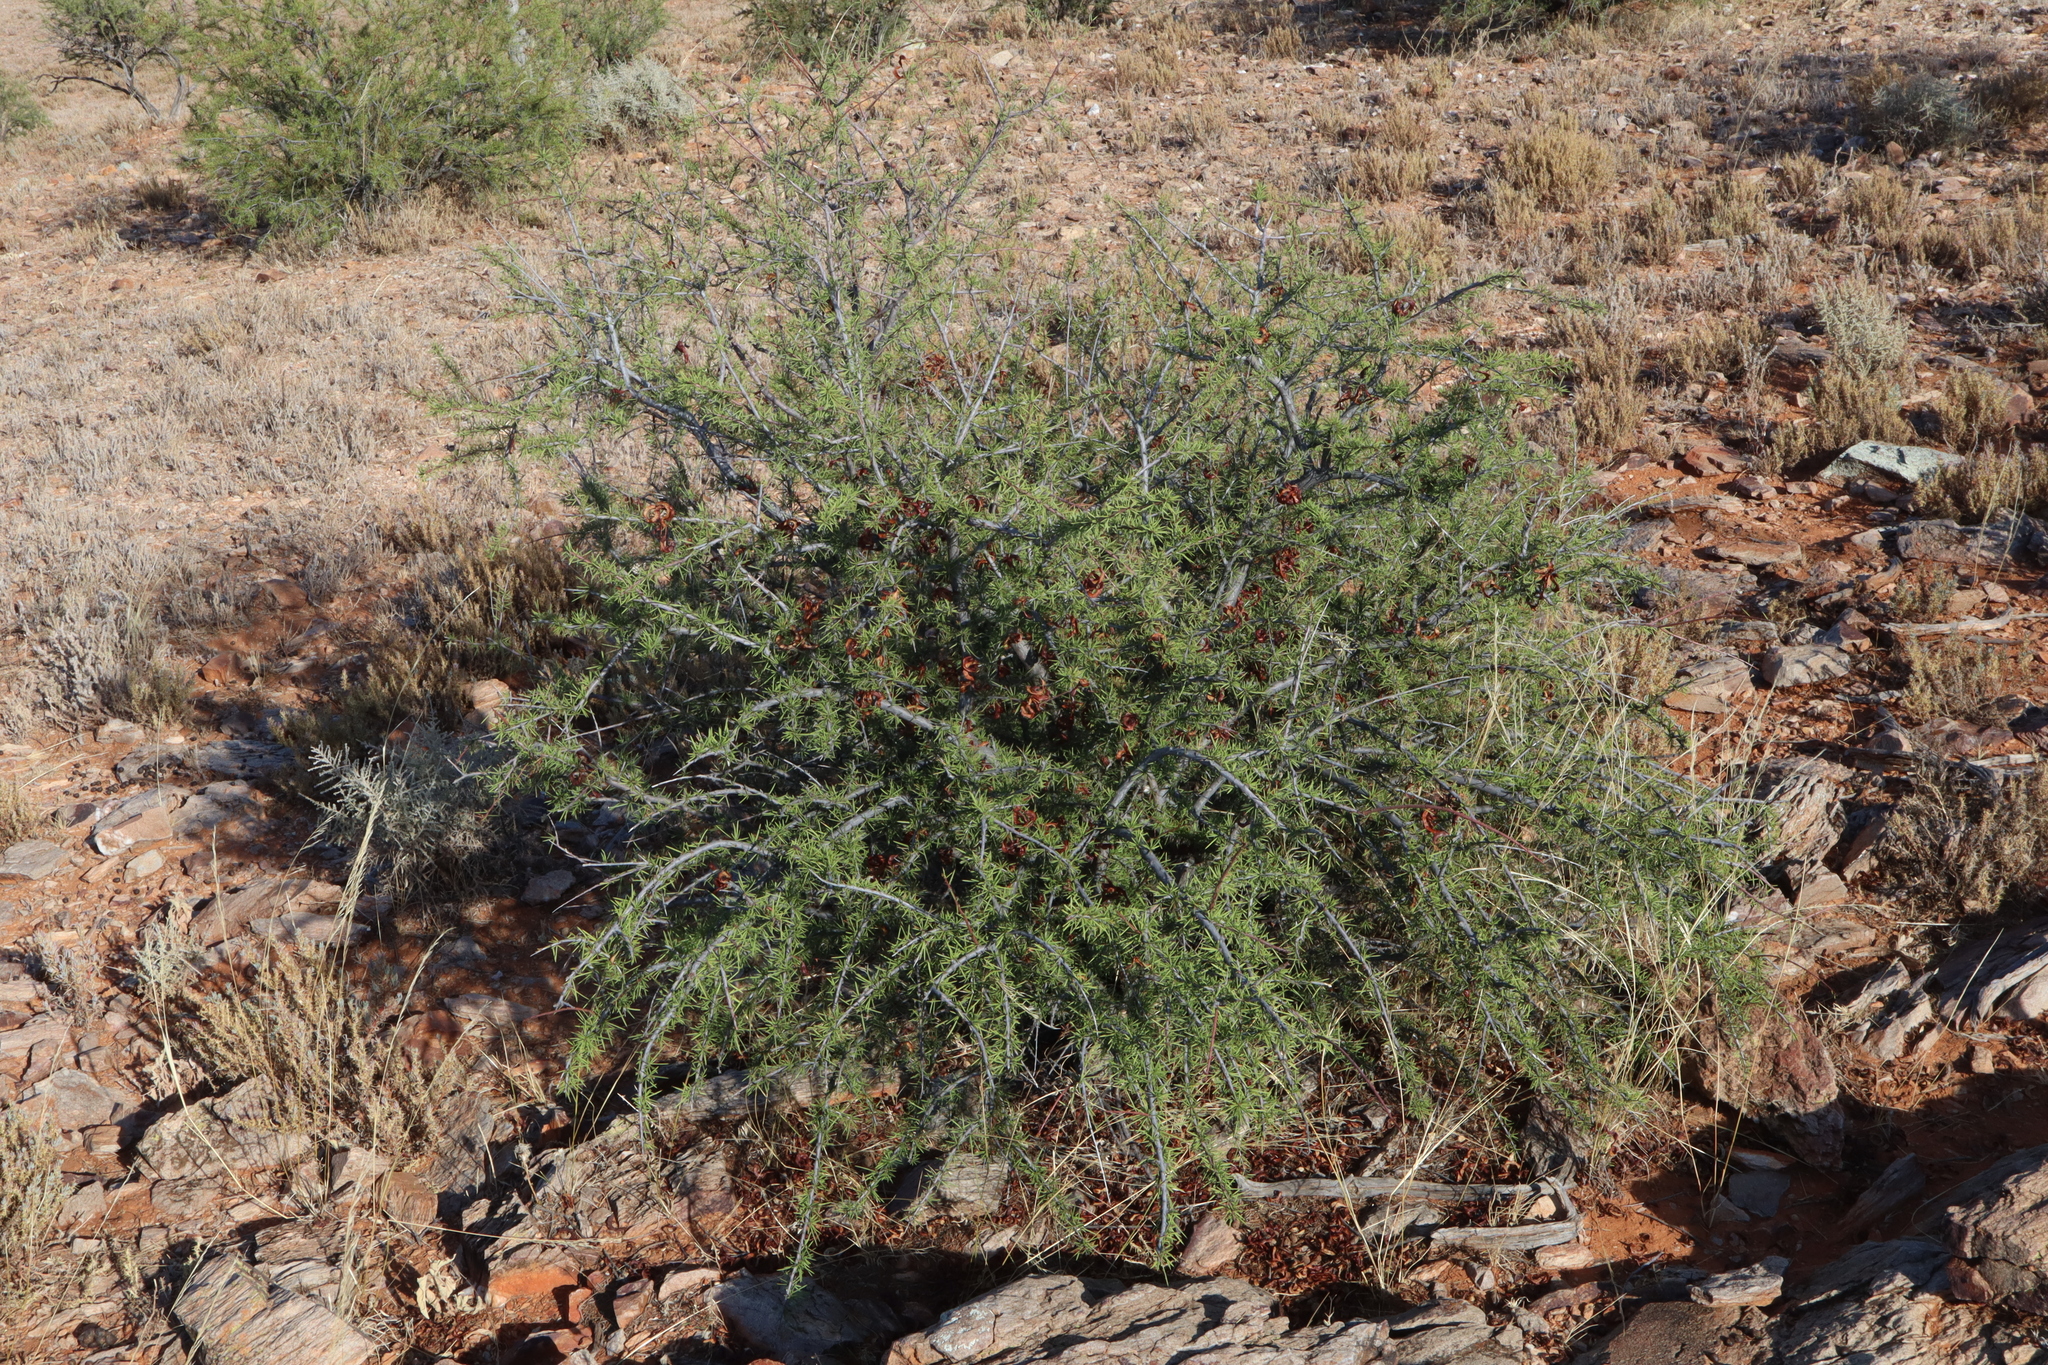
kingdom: Plantae
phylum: Tracheophyta
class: Magnoliopsida
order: Fabales
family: Fabaceae
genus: Acacia
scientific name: Acacia tetragonophylla
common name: Dead finish
